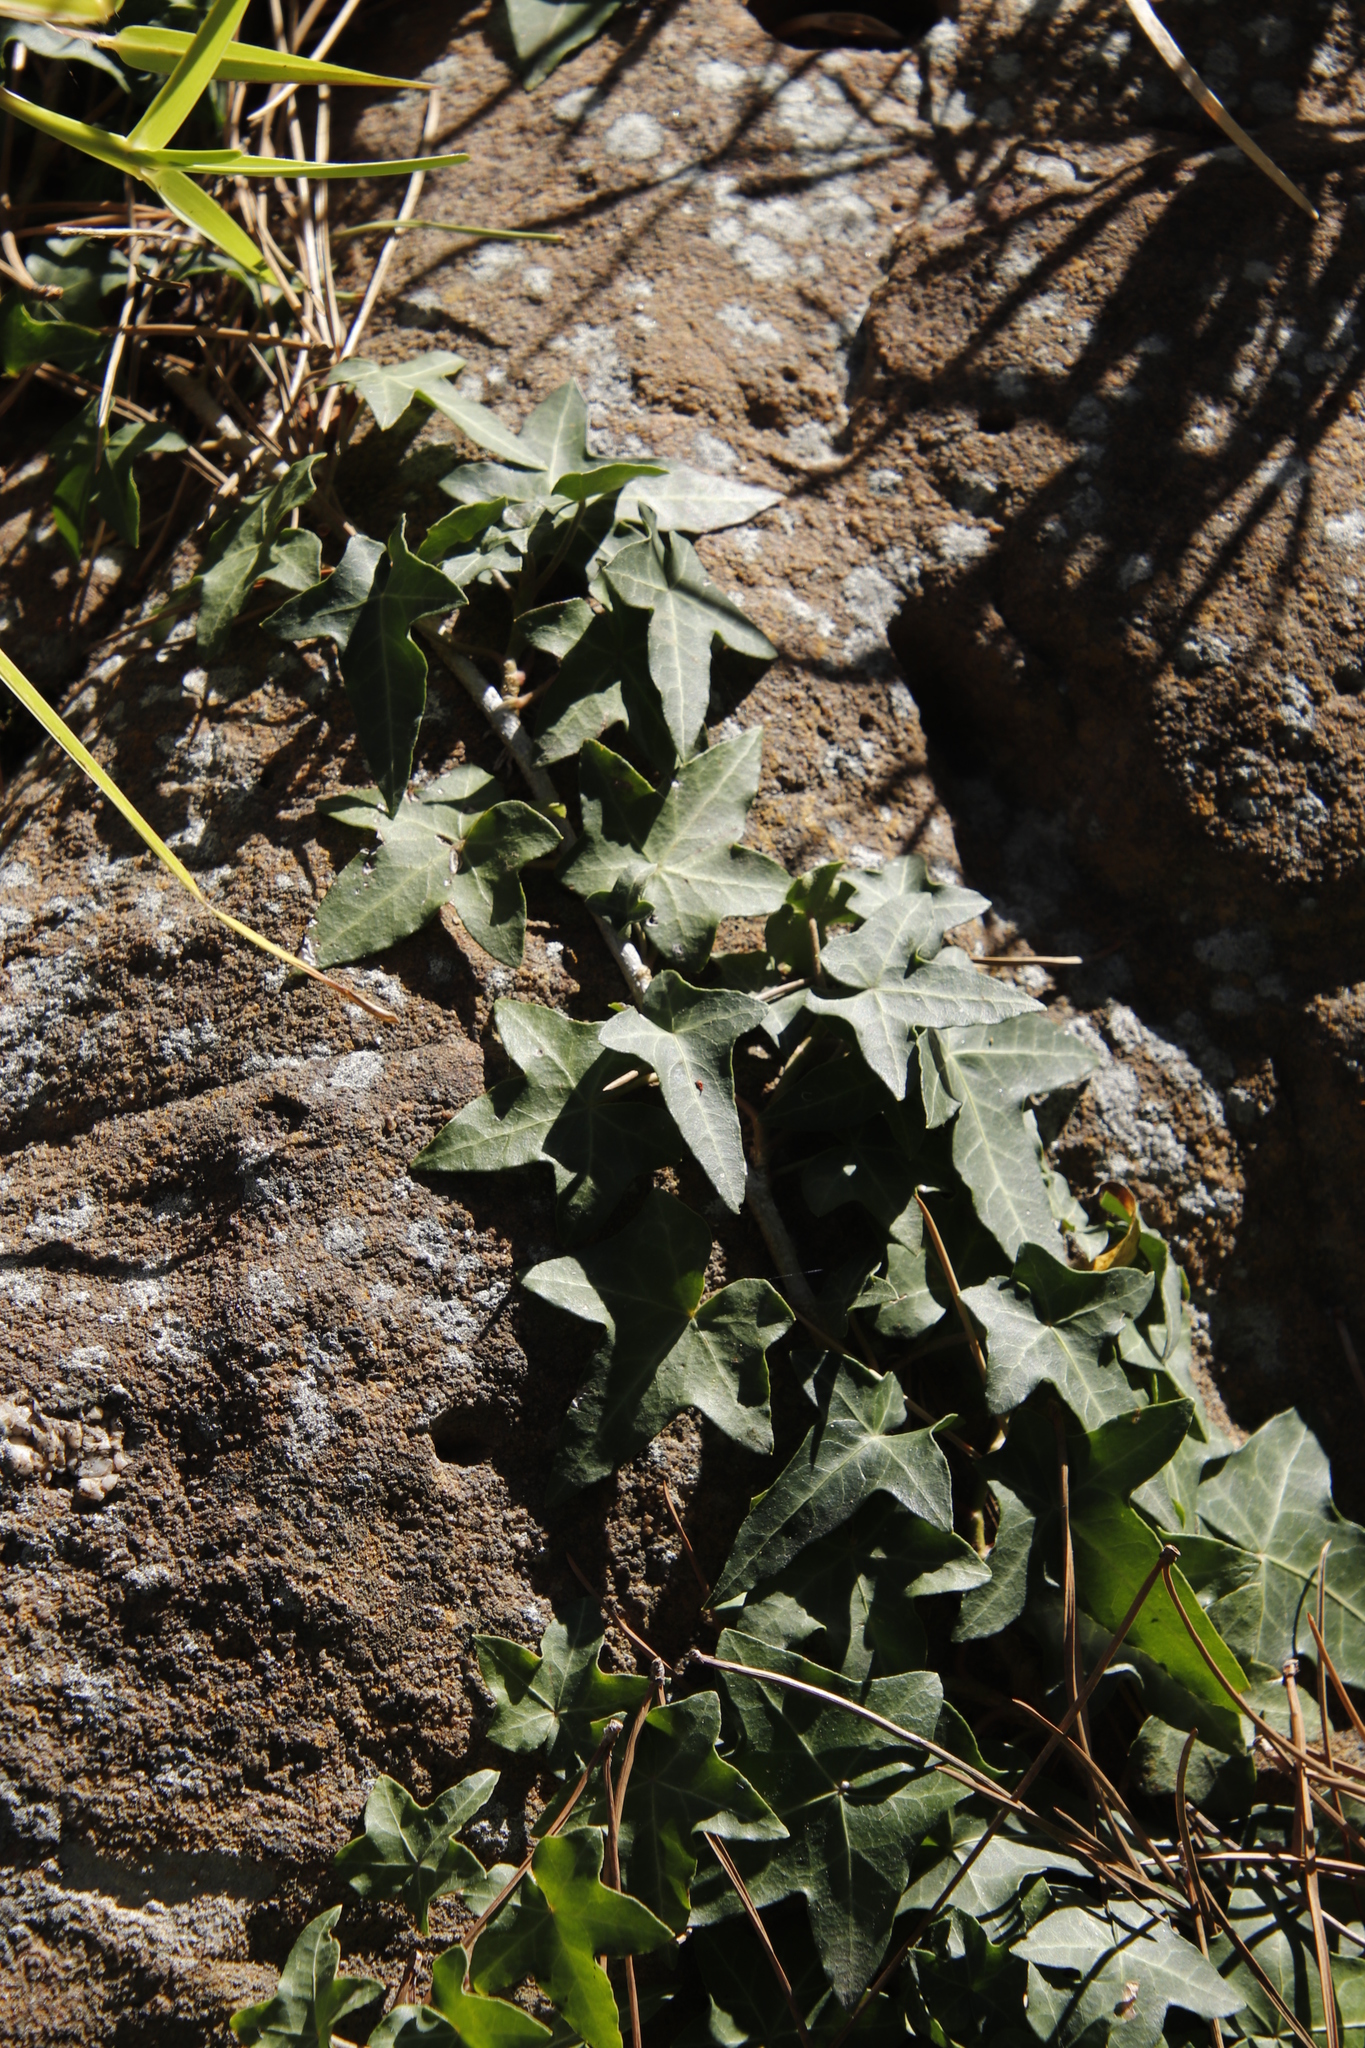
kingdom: Plantae
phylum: Tracheophyta
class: Magnoliopsida
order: Apiales
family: Araliaceae
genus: Hedera
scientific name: Hedera helix
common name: Ivy
